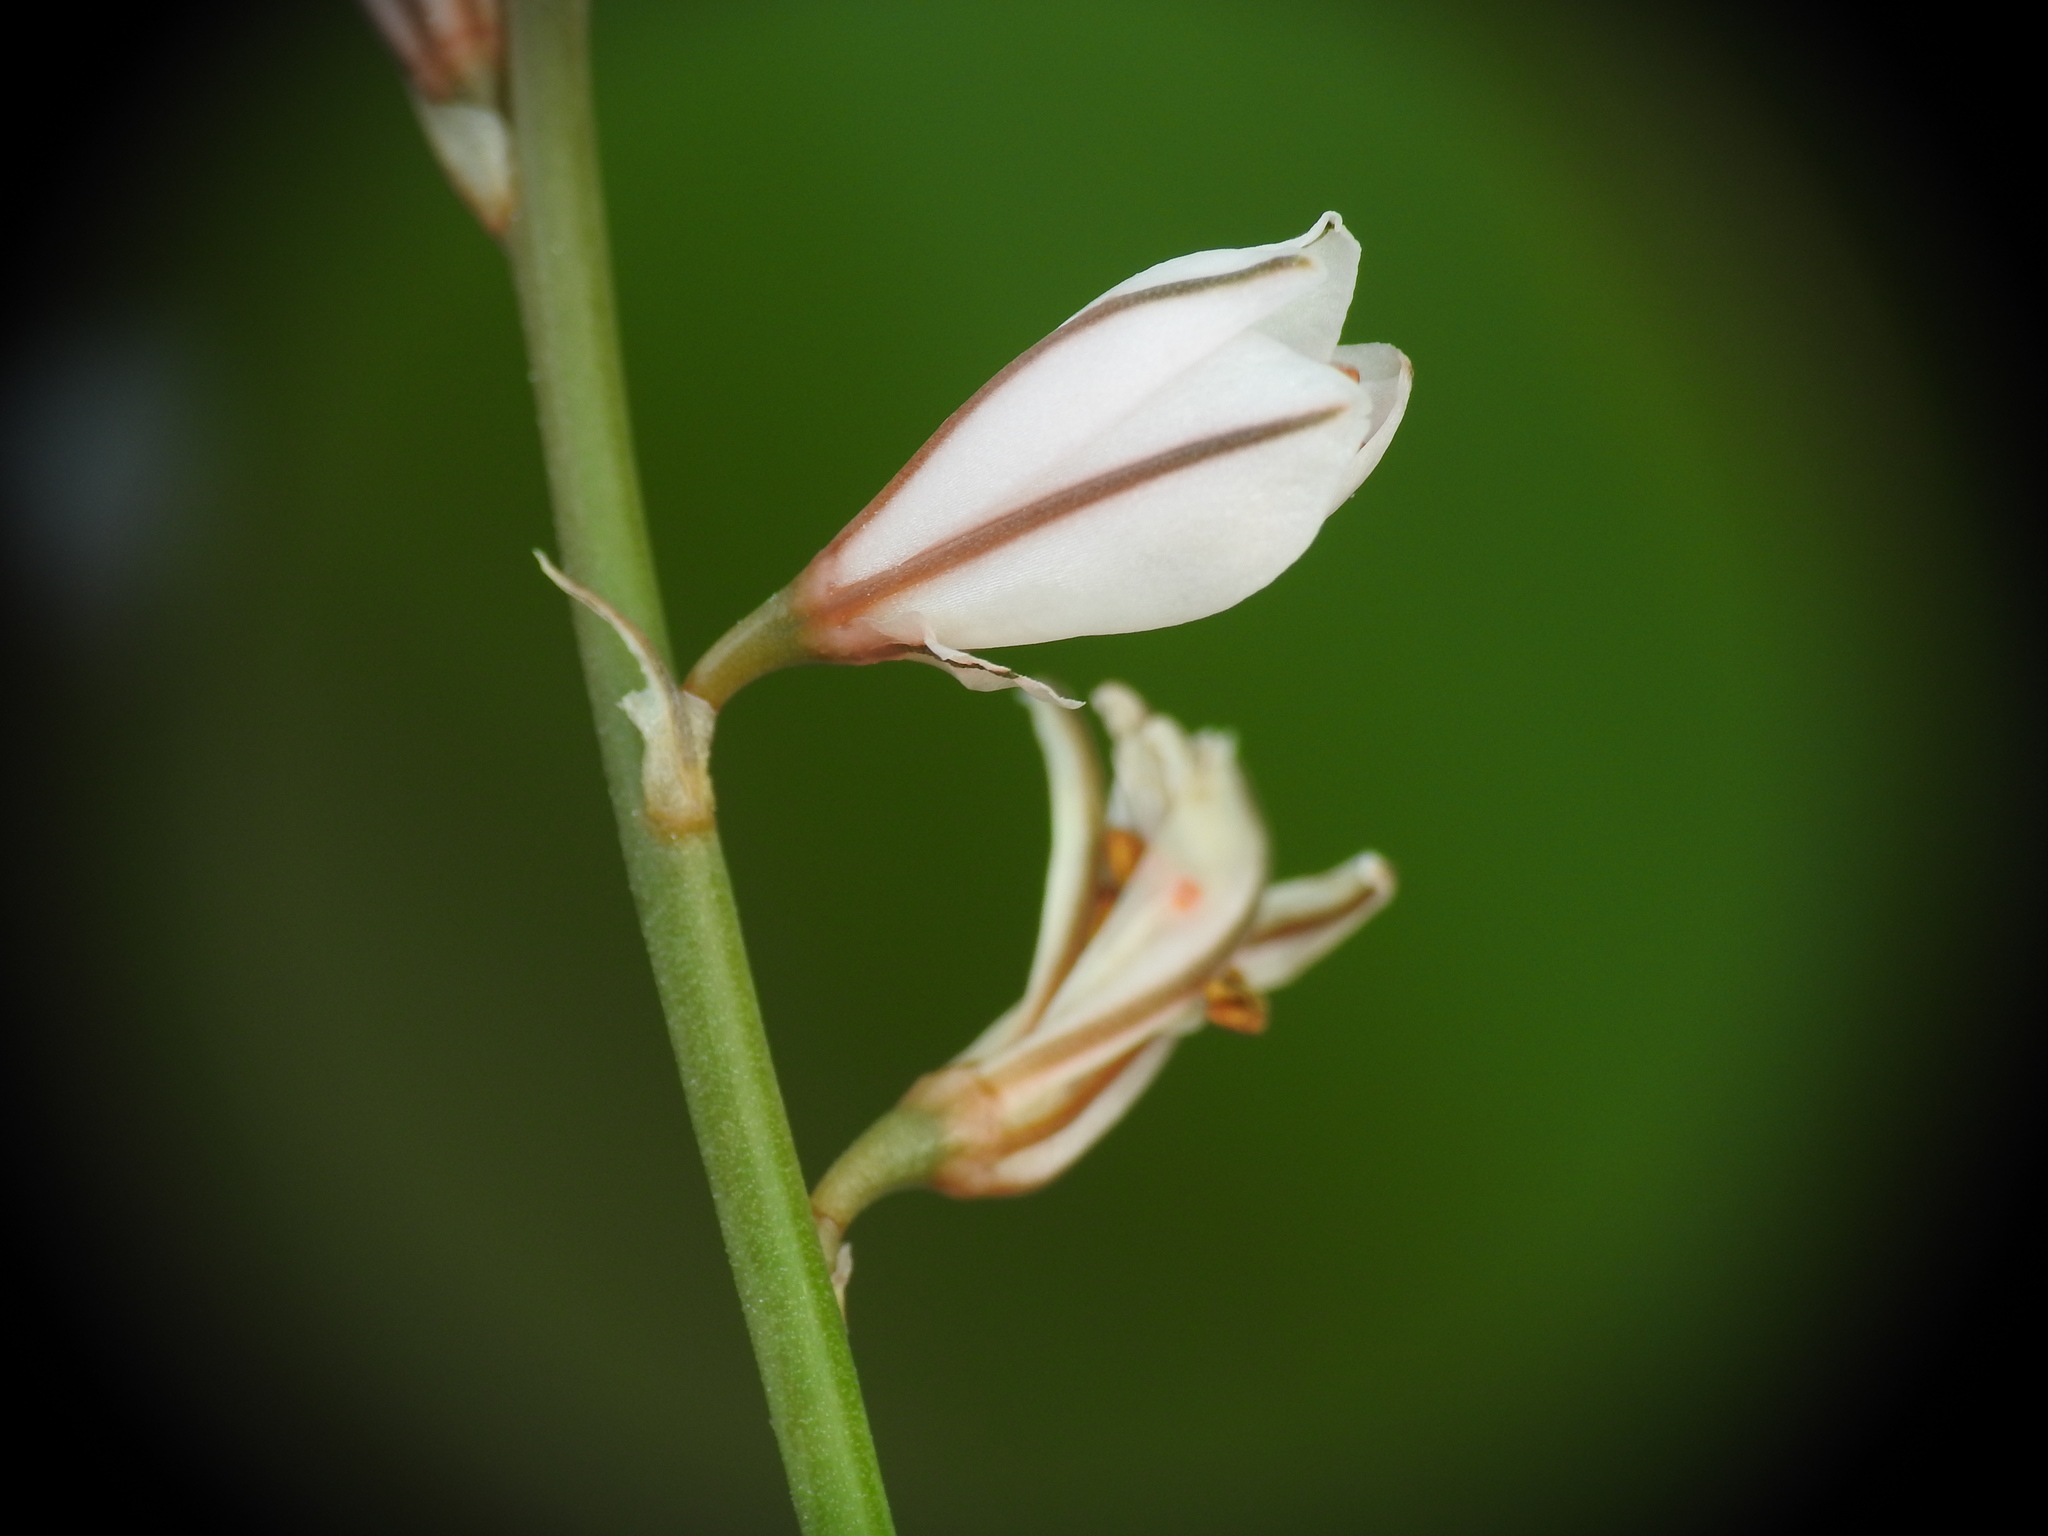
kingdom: Plantae
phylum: Tracheophyta
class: Liliopsida
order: Asparagales
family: Asphodelaceae
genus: Asphodelus
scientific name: Asphodelus fistulosus
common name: Onionweed
